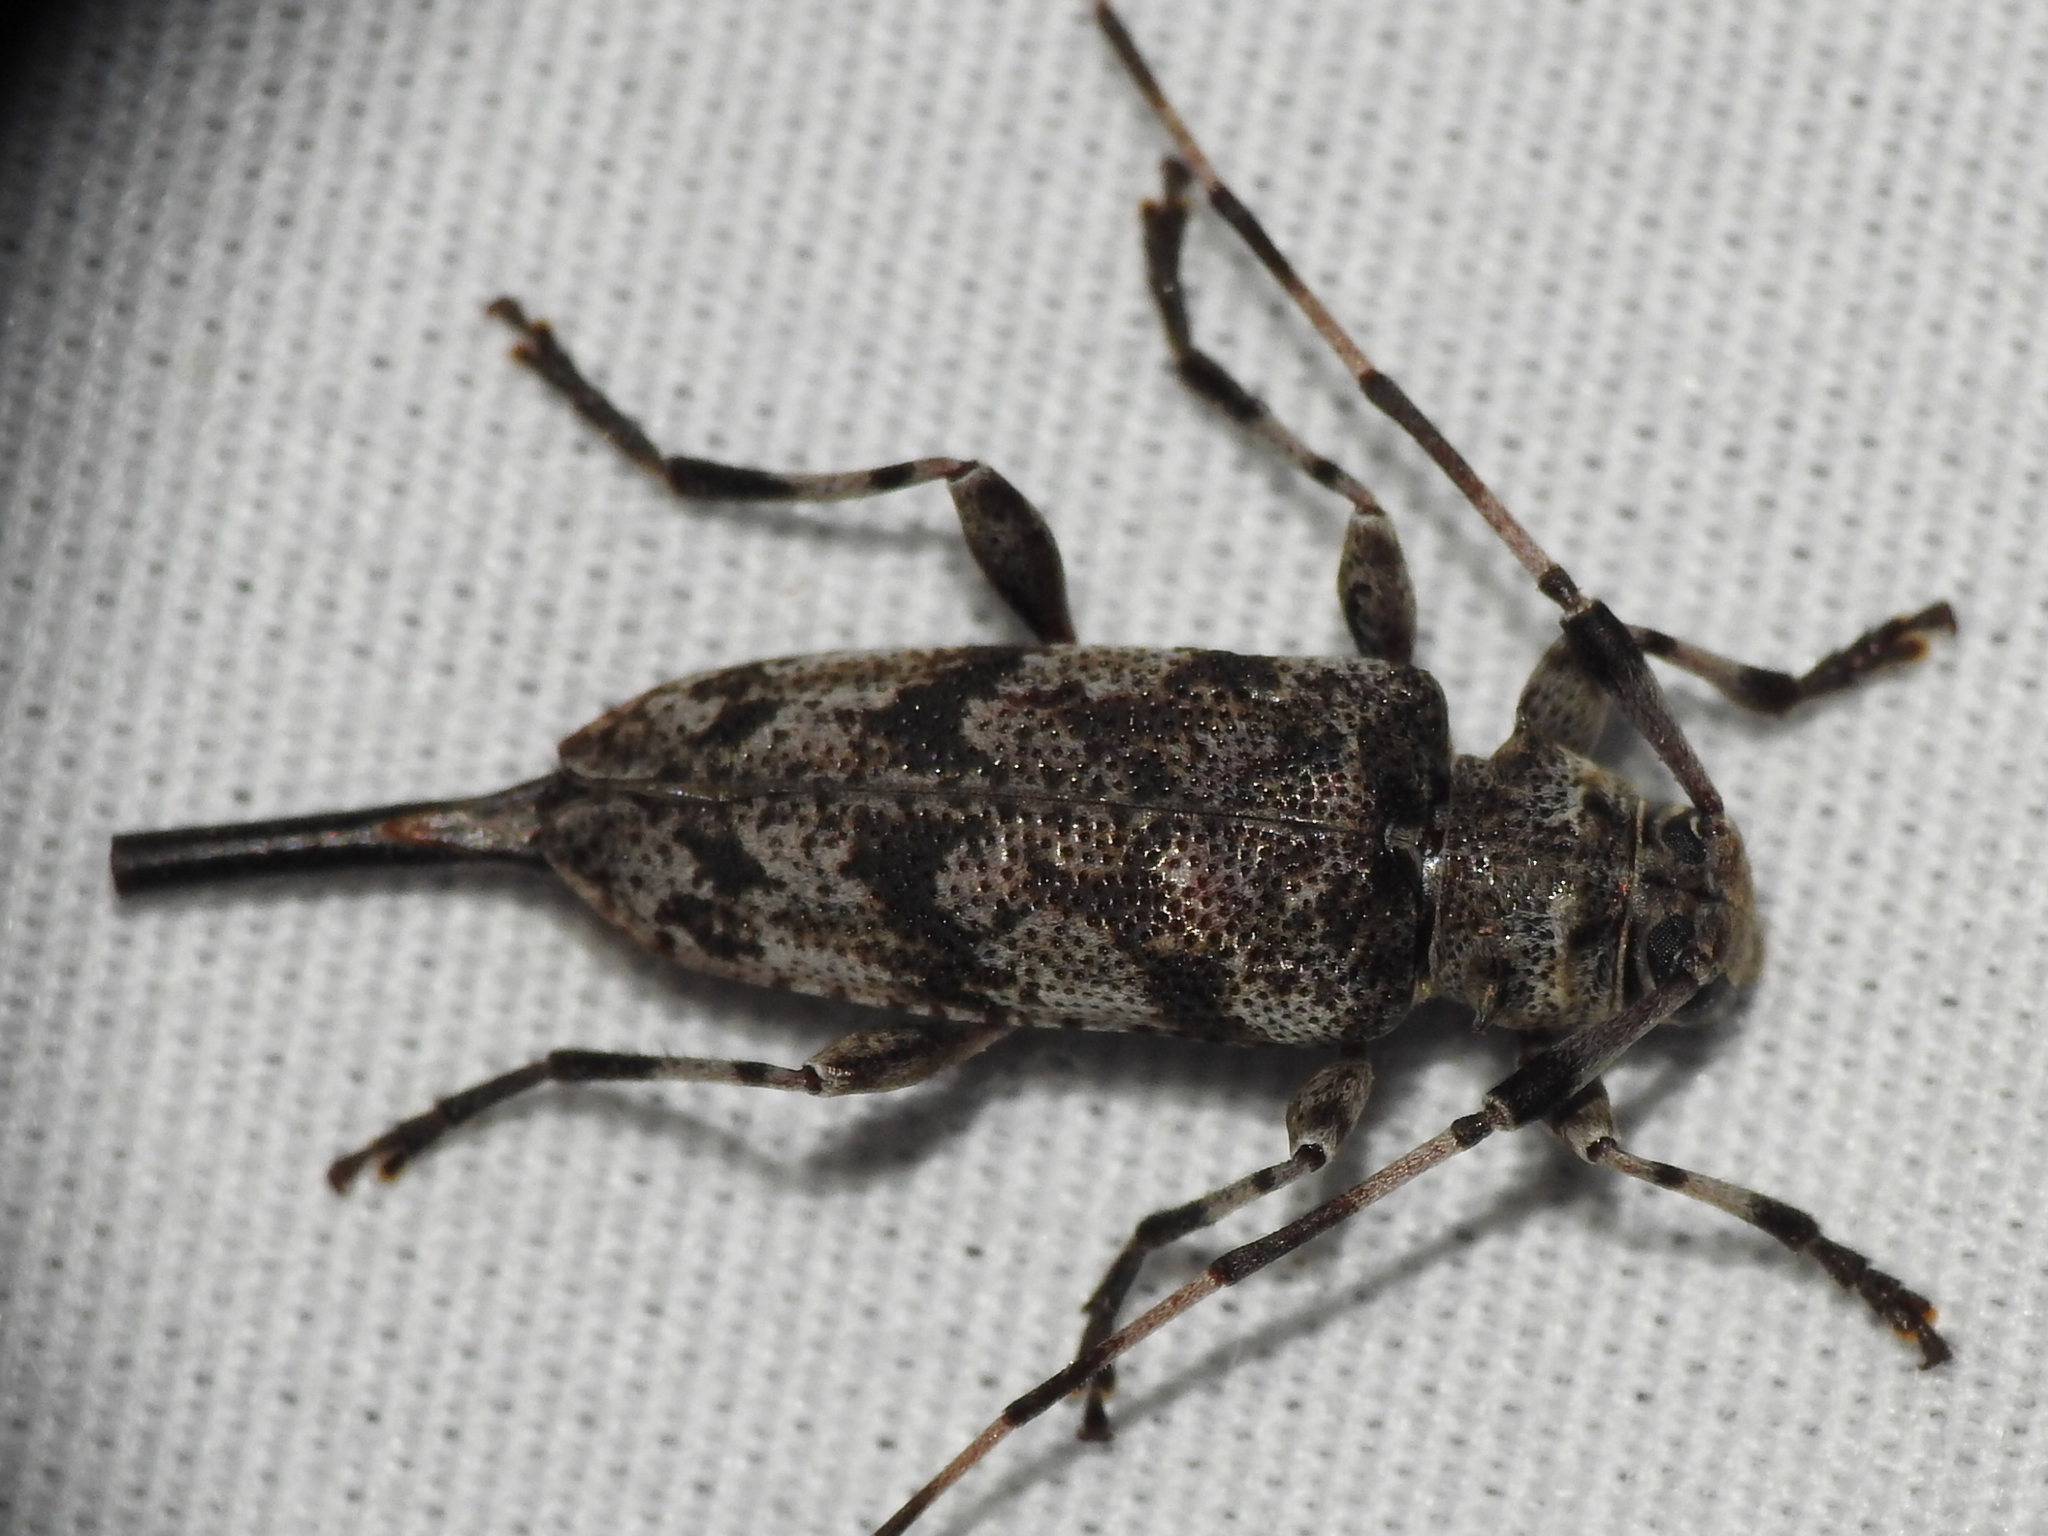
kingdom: Animalia
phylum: Arthropoda
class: Insecta
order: Coleoptera
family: Cerambycidae
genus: Acanthocinus
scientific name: Acanthocinus obsoletus
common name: Roundheaded borer
